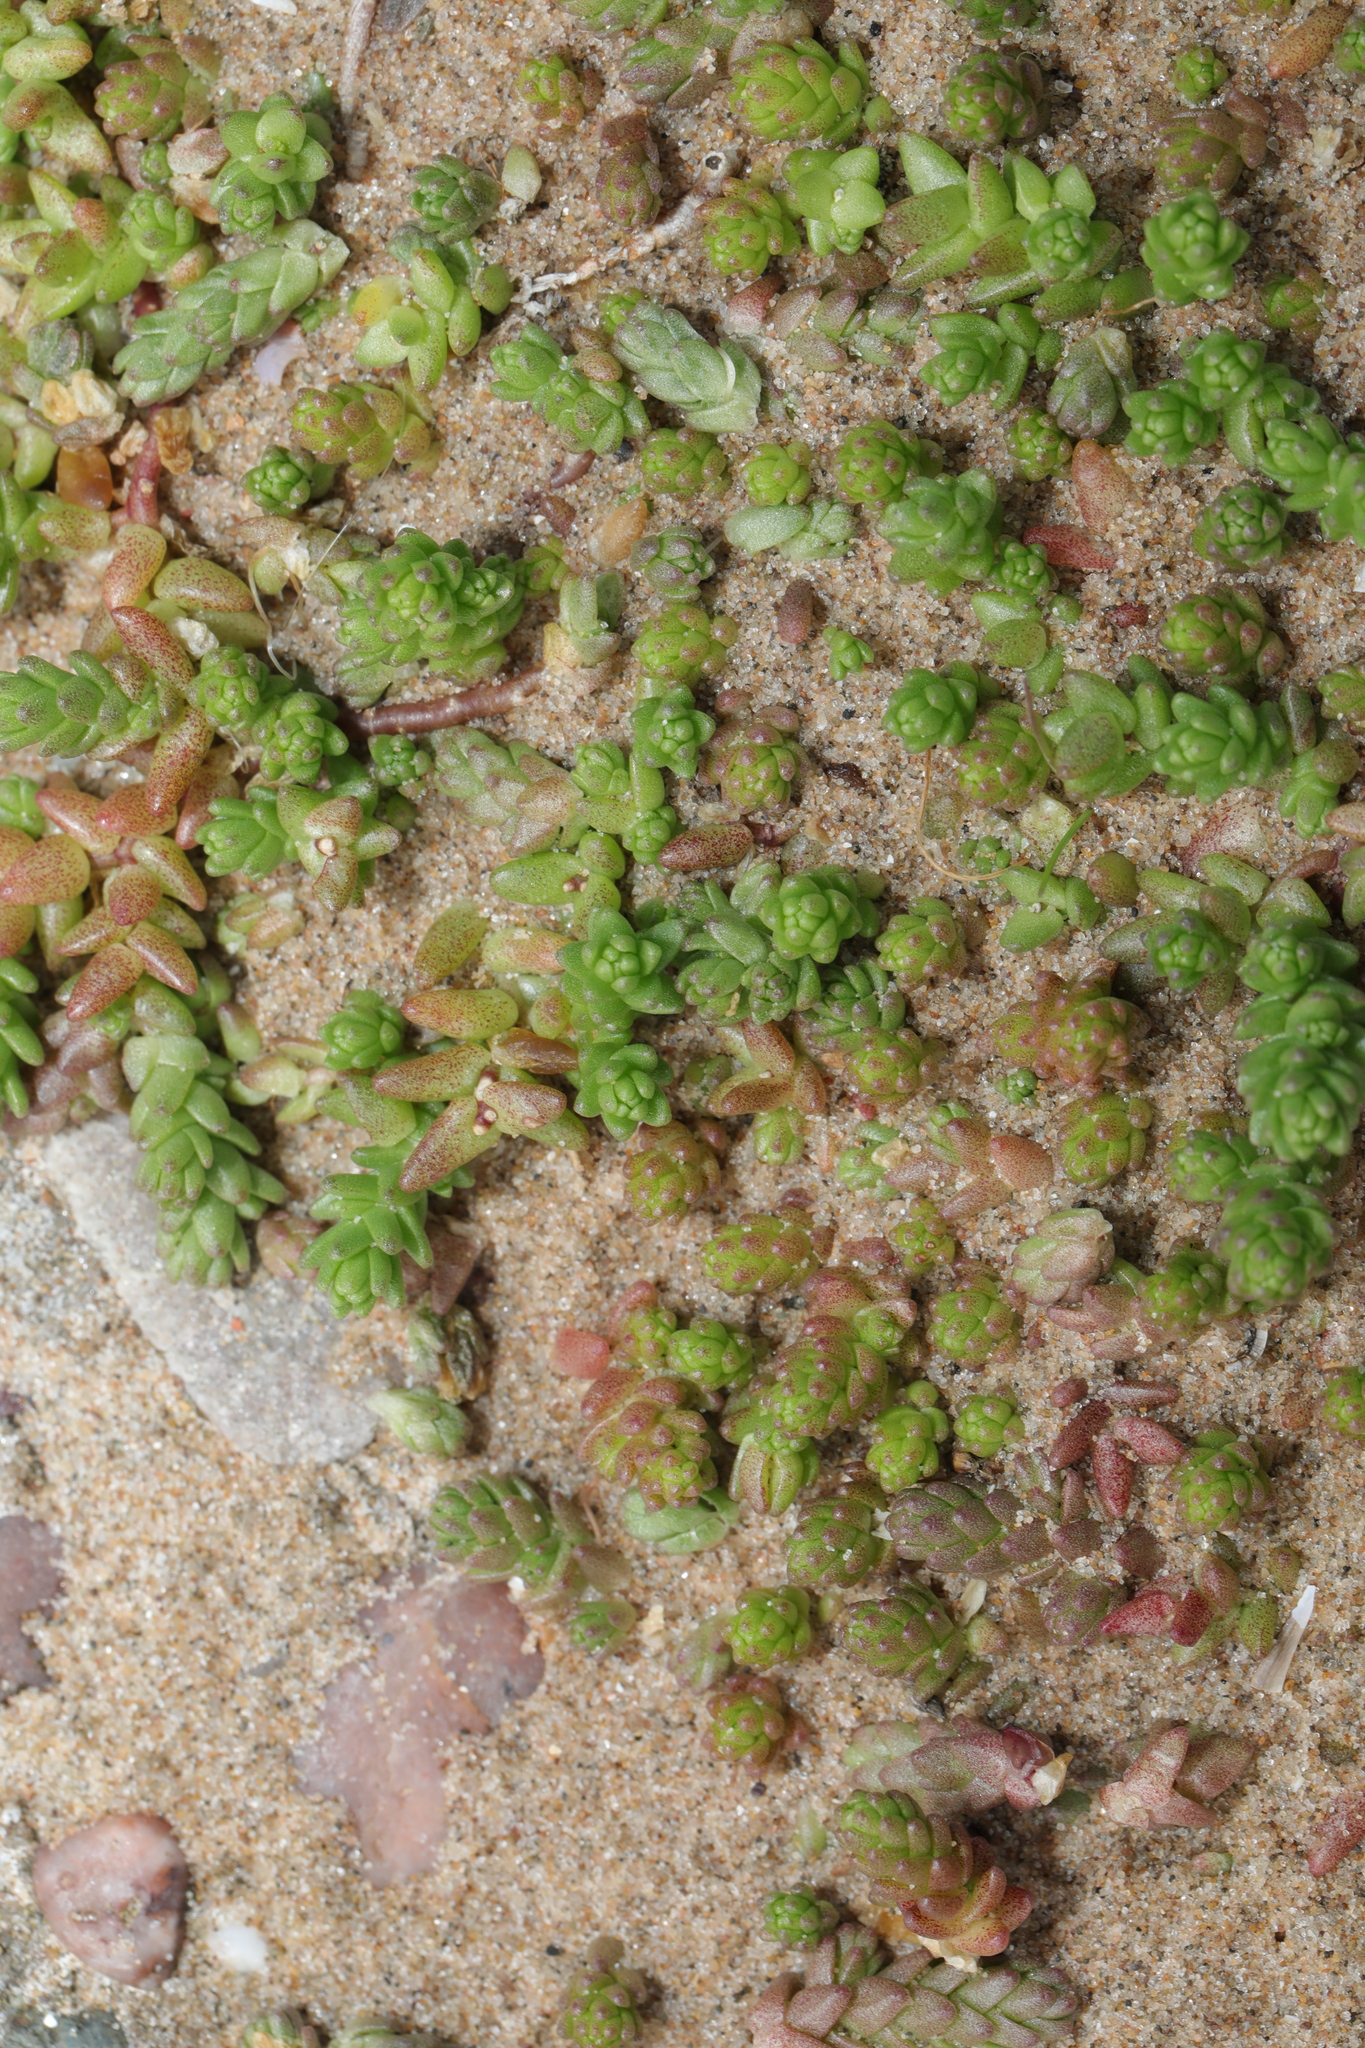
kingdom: Plantae
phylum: Tracheophyta
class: Magnoliopsida
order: Saxifragales
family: Crassulaceae
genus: Sedum
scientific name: Sedum acre
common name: Biting stonecrop
